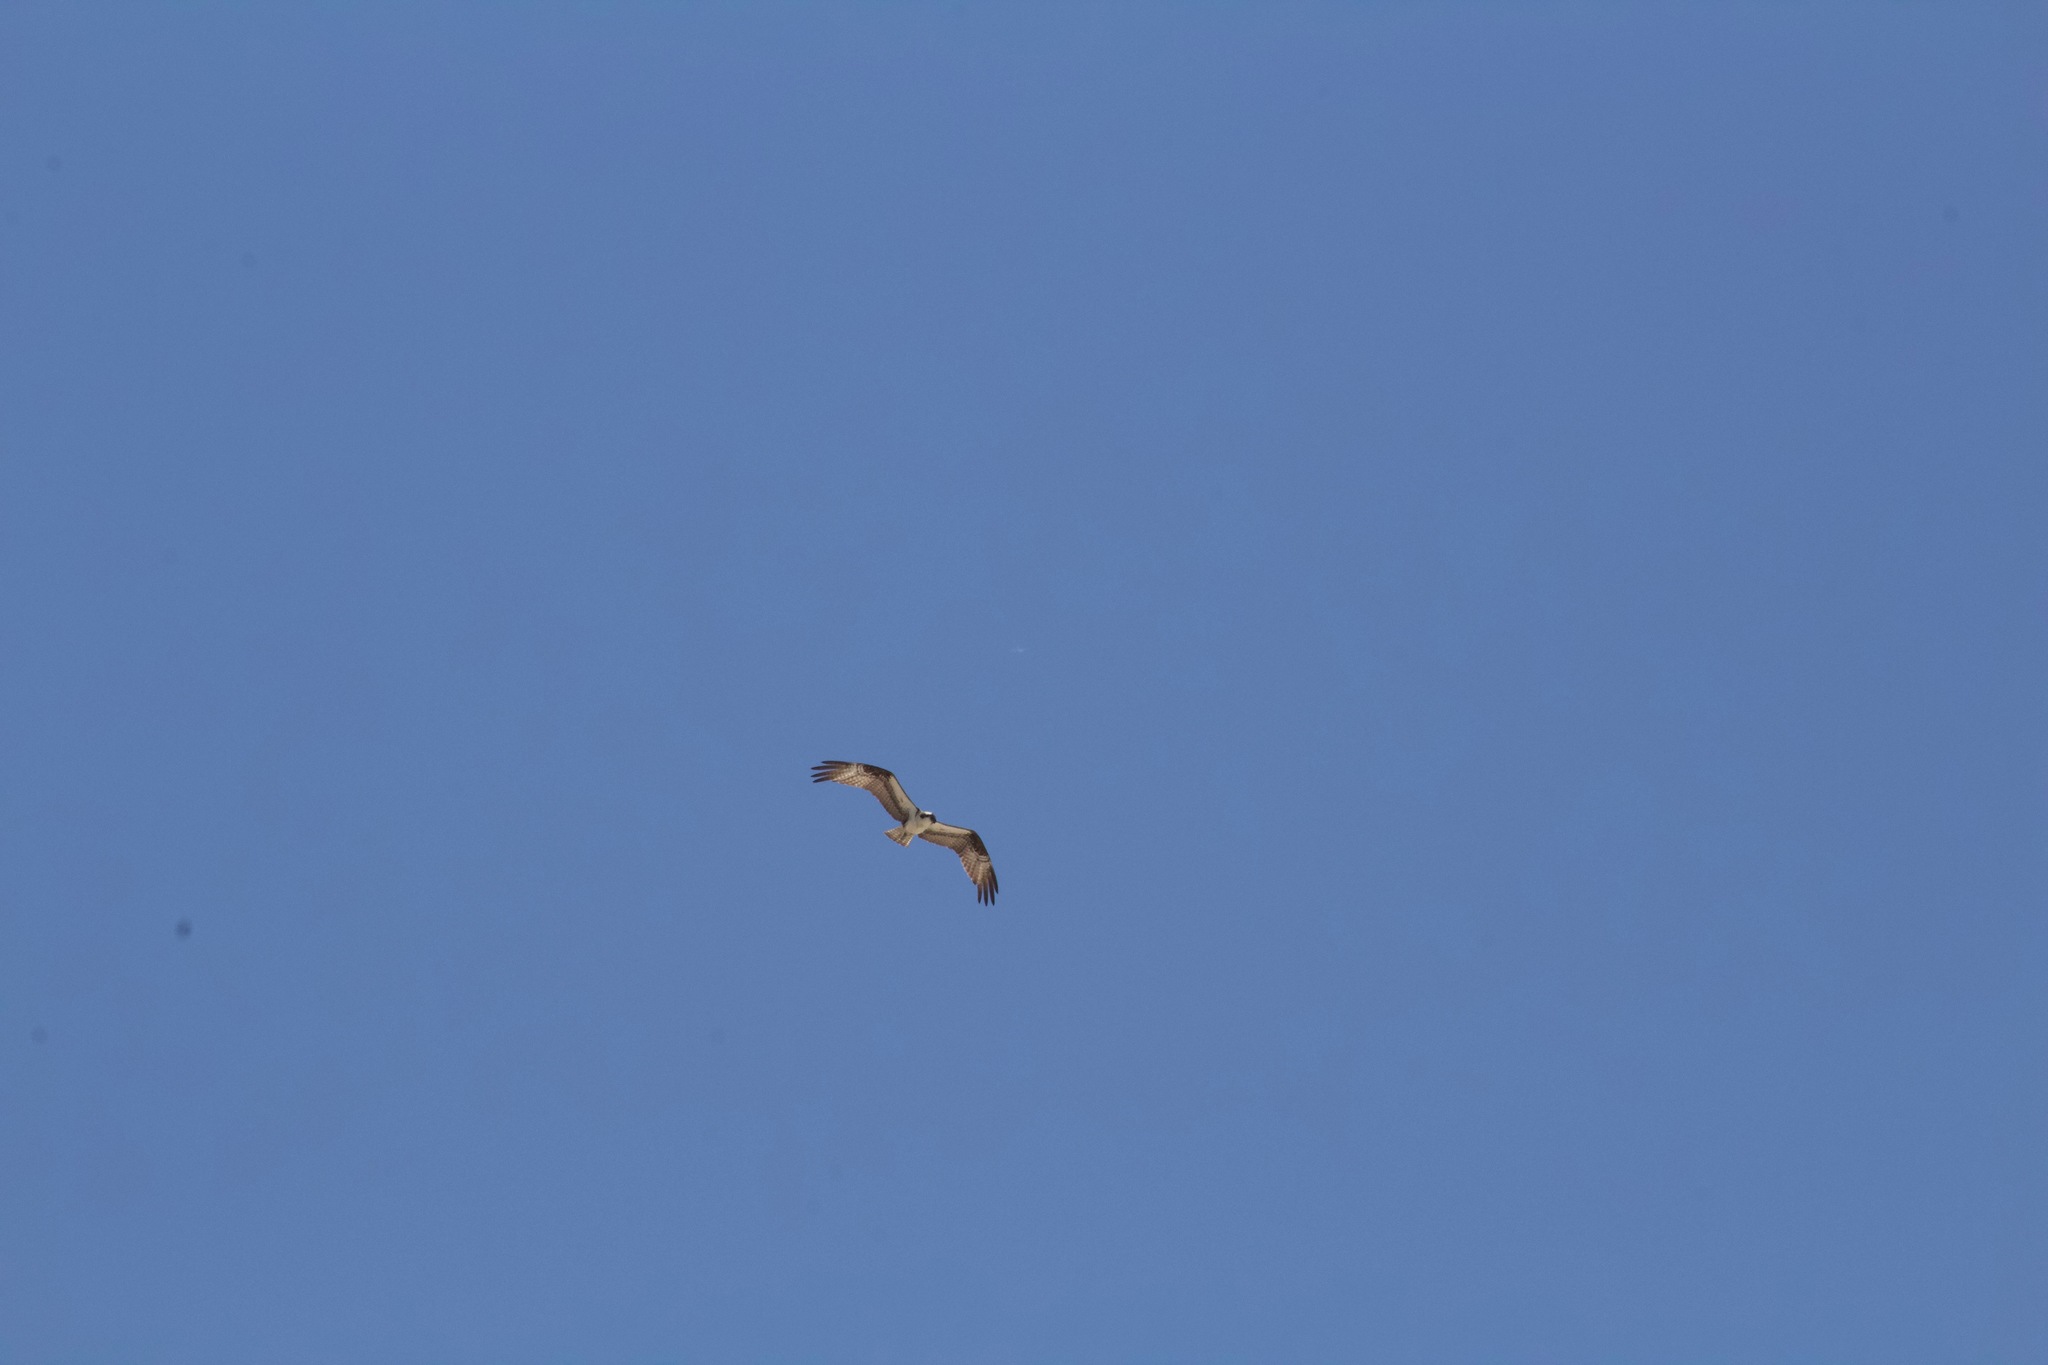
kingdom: Animalia
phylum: Chordata
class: Aves
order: Accipitriformes
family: Pandionidae
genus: Pandion
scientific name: Pandion haliaetus
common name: Osprey
